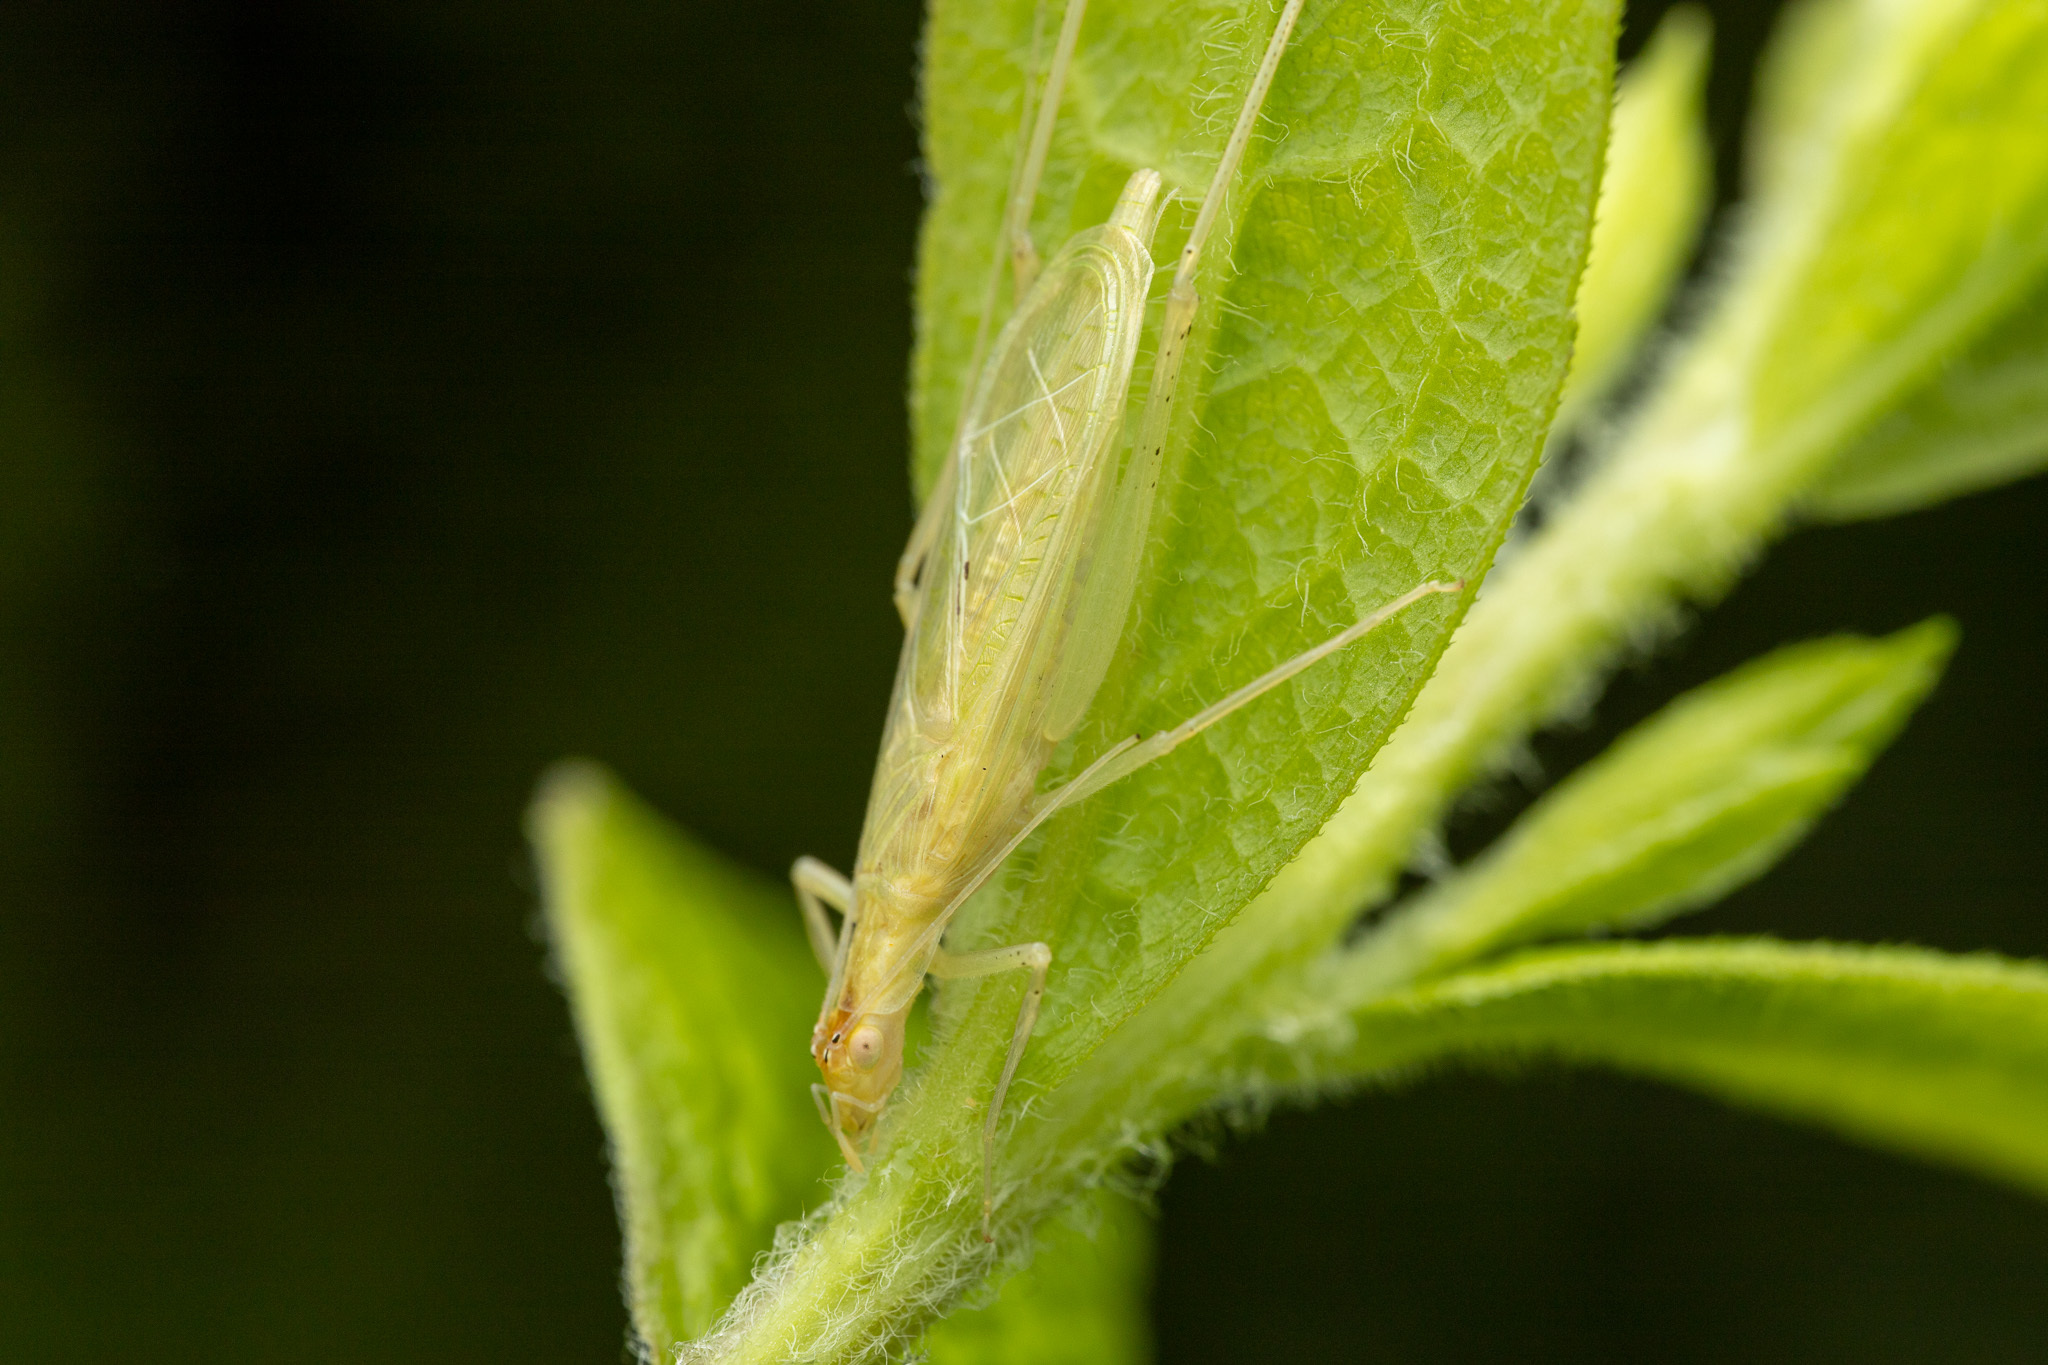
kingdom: Animalia
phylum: Arthropoda
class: Insecta
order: Orthoptera
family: Gryllidae
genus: Oecanthus
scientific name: Oecanthus niveus
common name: Narrow-winged tree cricket
